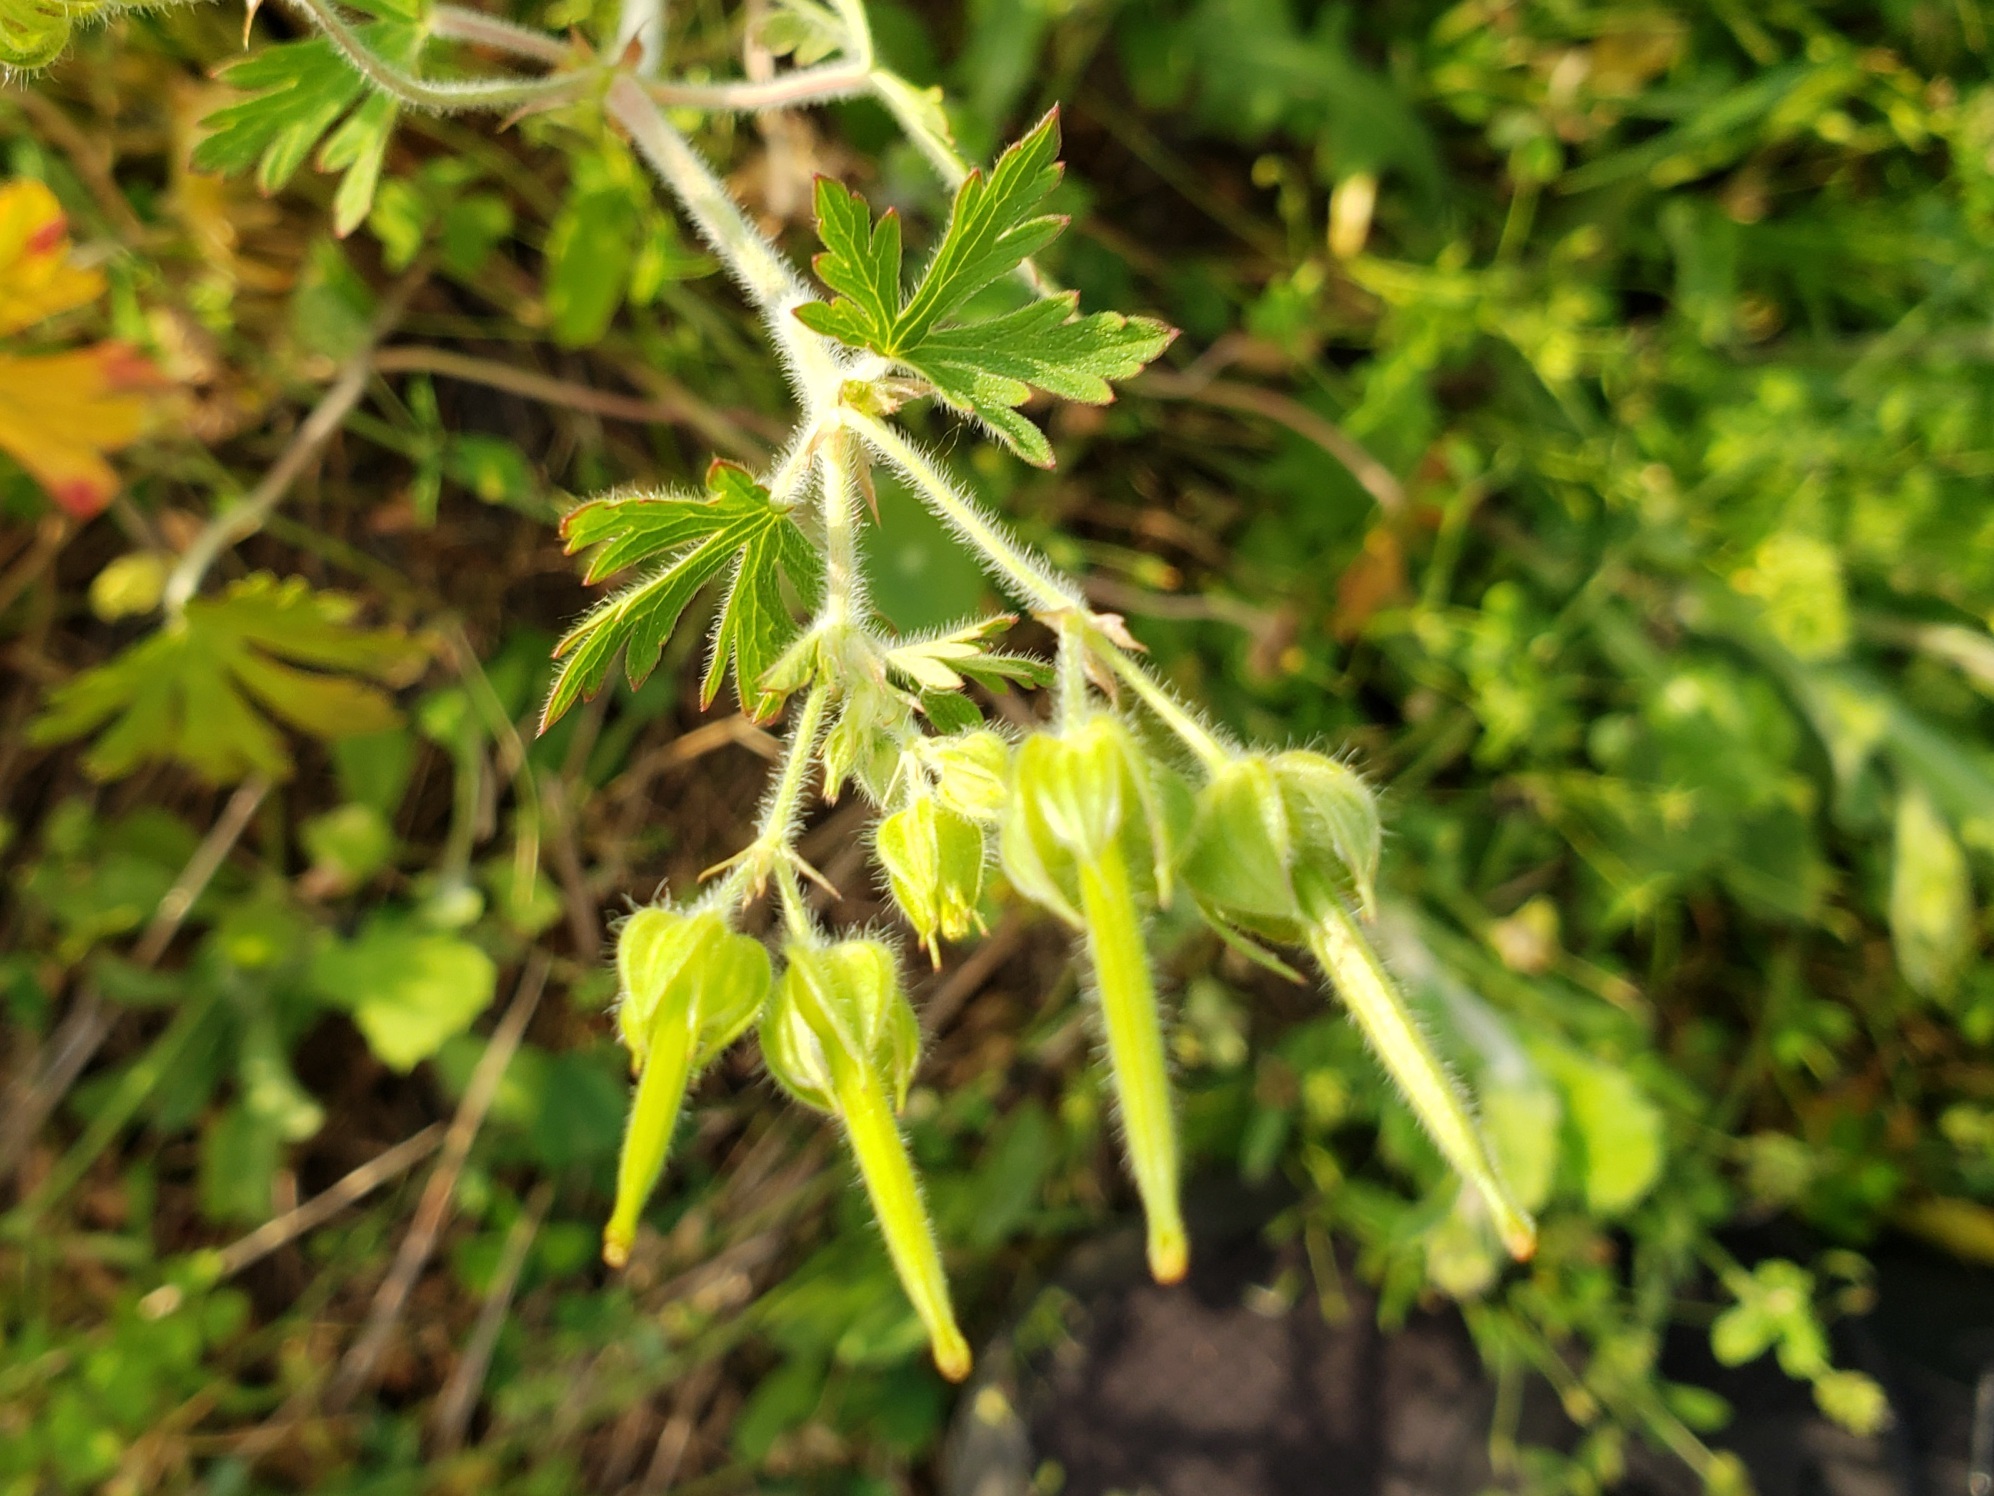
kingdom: Plantae
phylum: Tracheophyta
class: Magnoliopsida
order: Geraniales
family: Geraniaceae
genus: Geranium
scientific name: Geranium carolinianum
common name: Carolina crane's-bill
